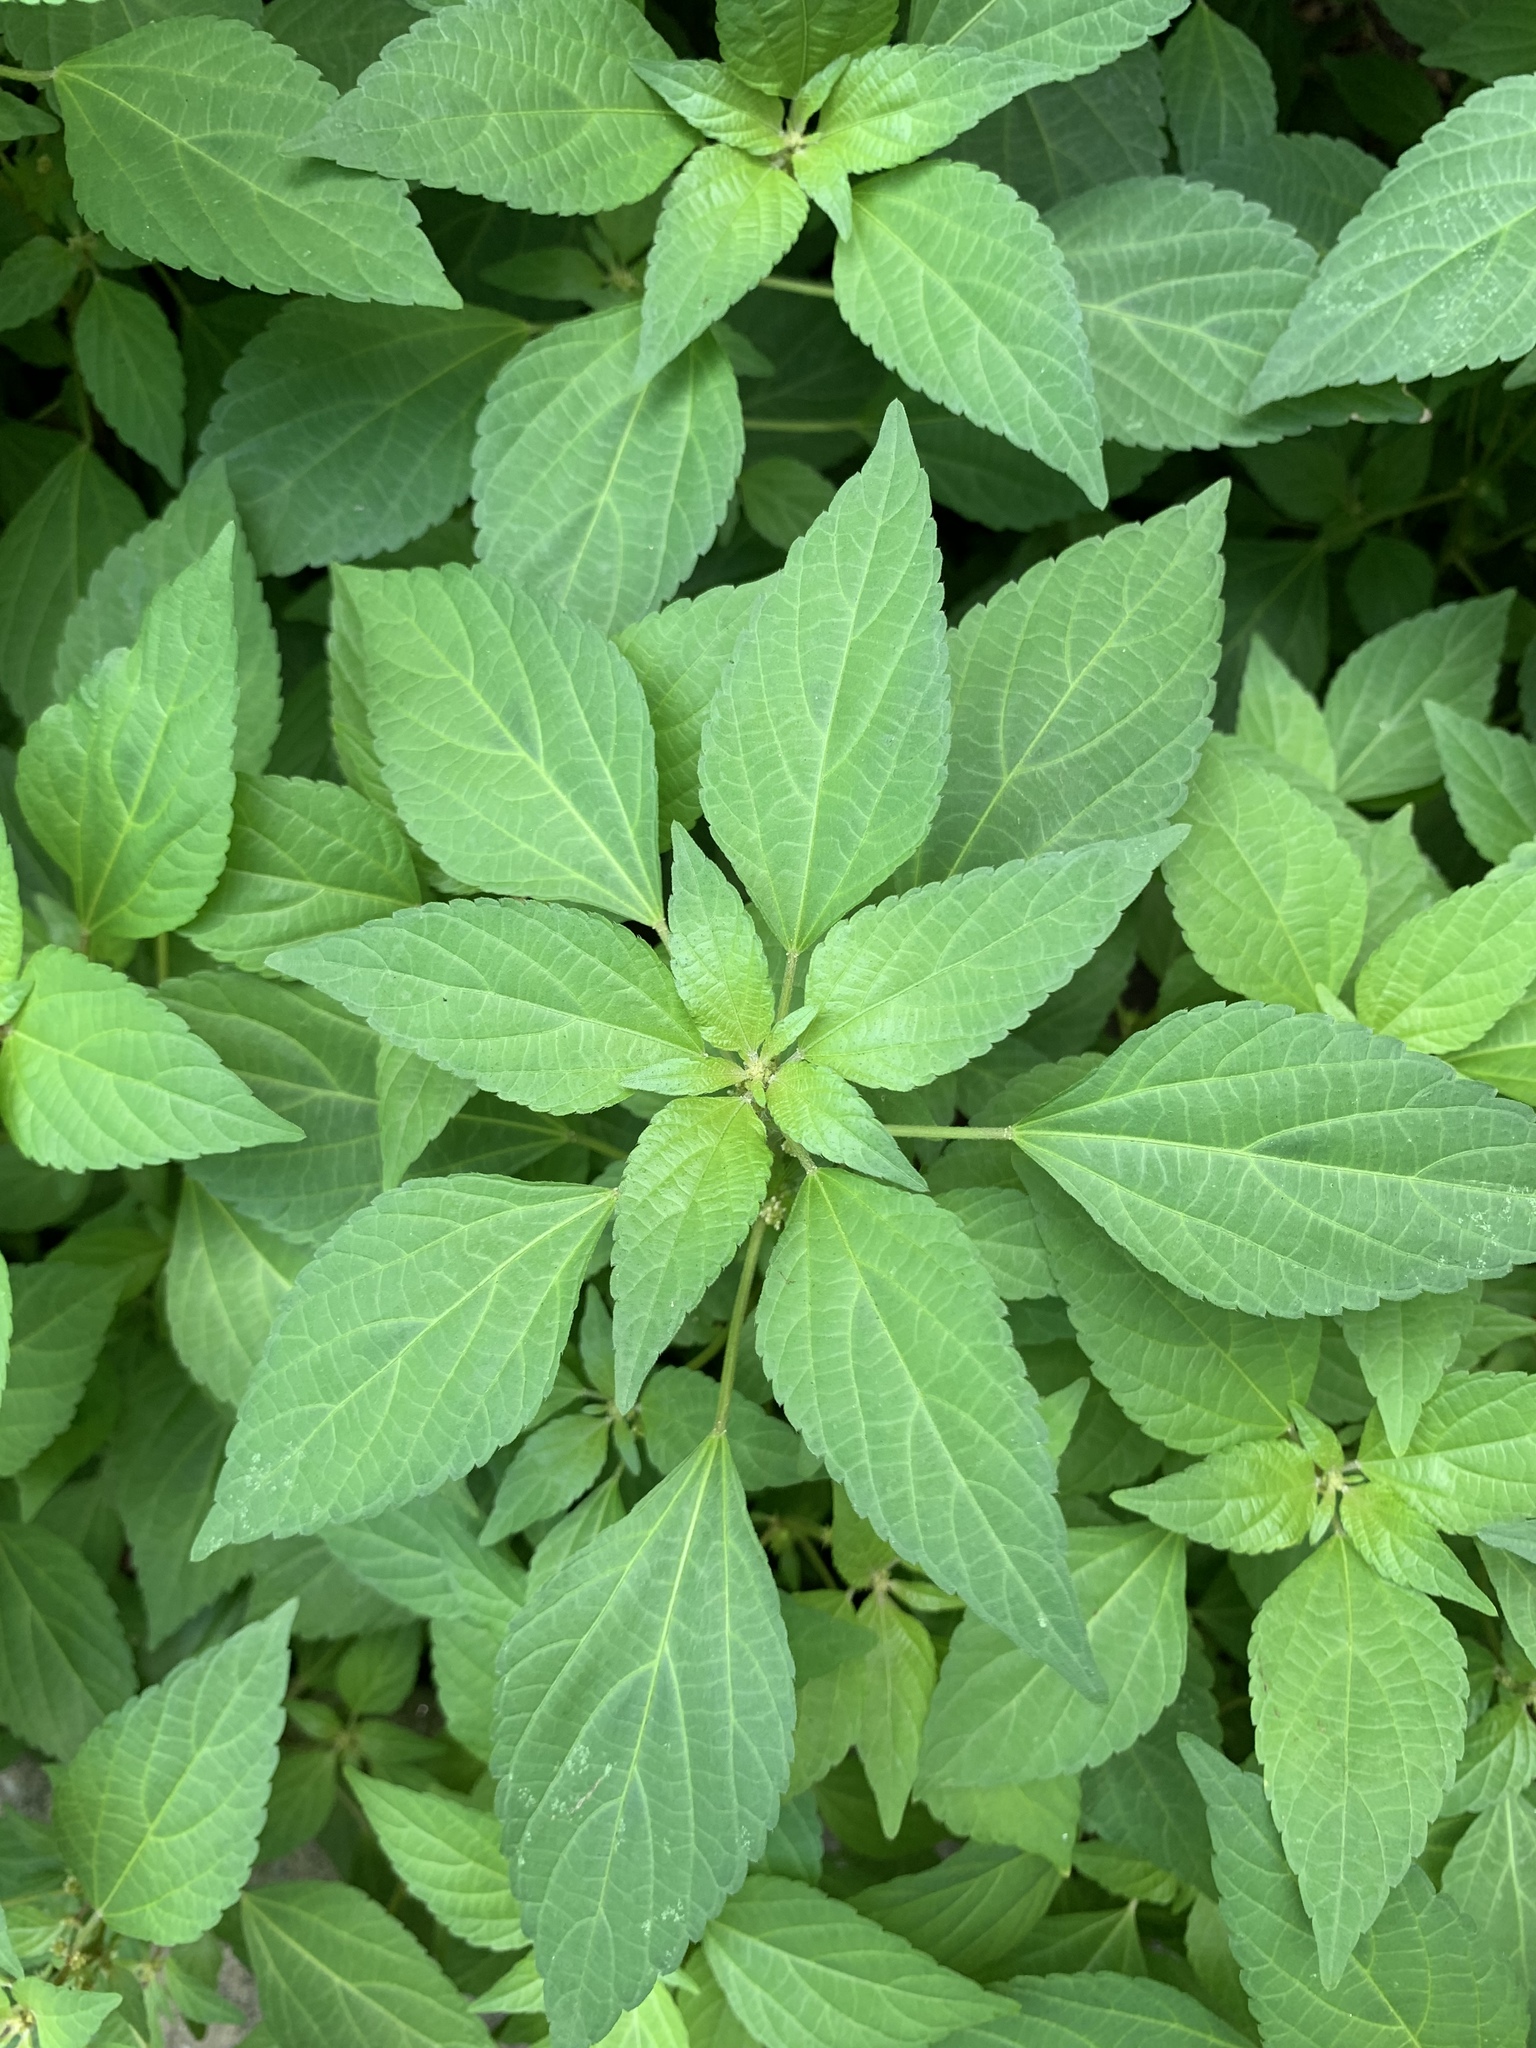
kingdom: Plantae
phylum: Tracheophyta
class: Magnoliopsida
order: Malpighiales
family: Euphorbiaceae
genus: Acalypha
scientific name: Acalypha rhomboidea
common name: Rhombic copperleaf
